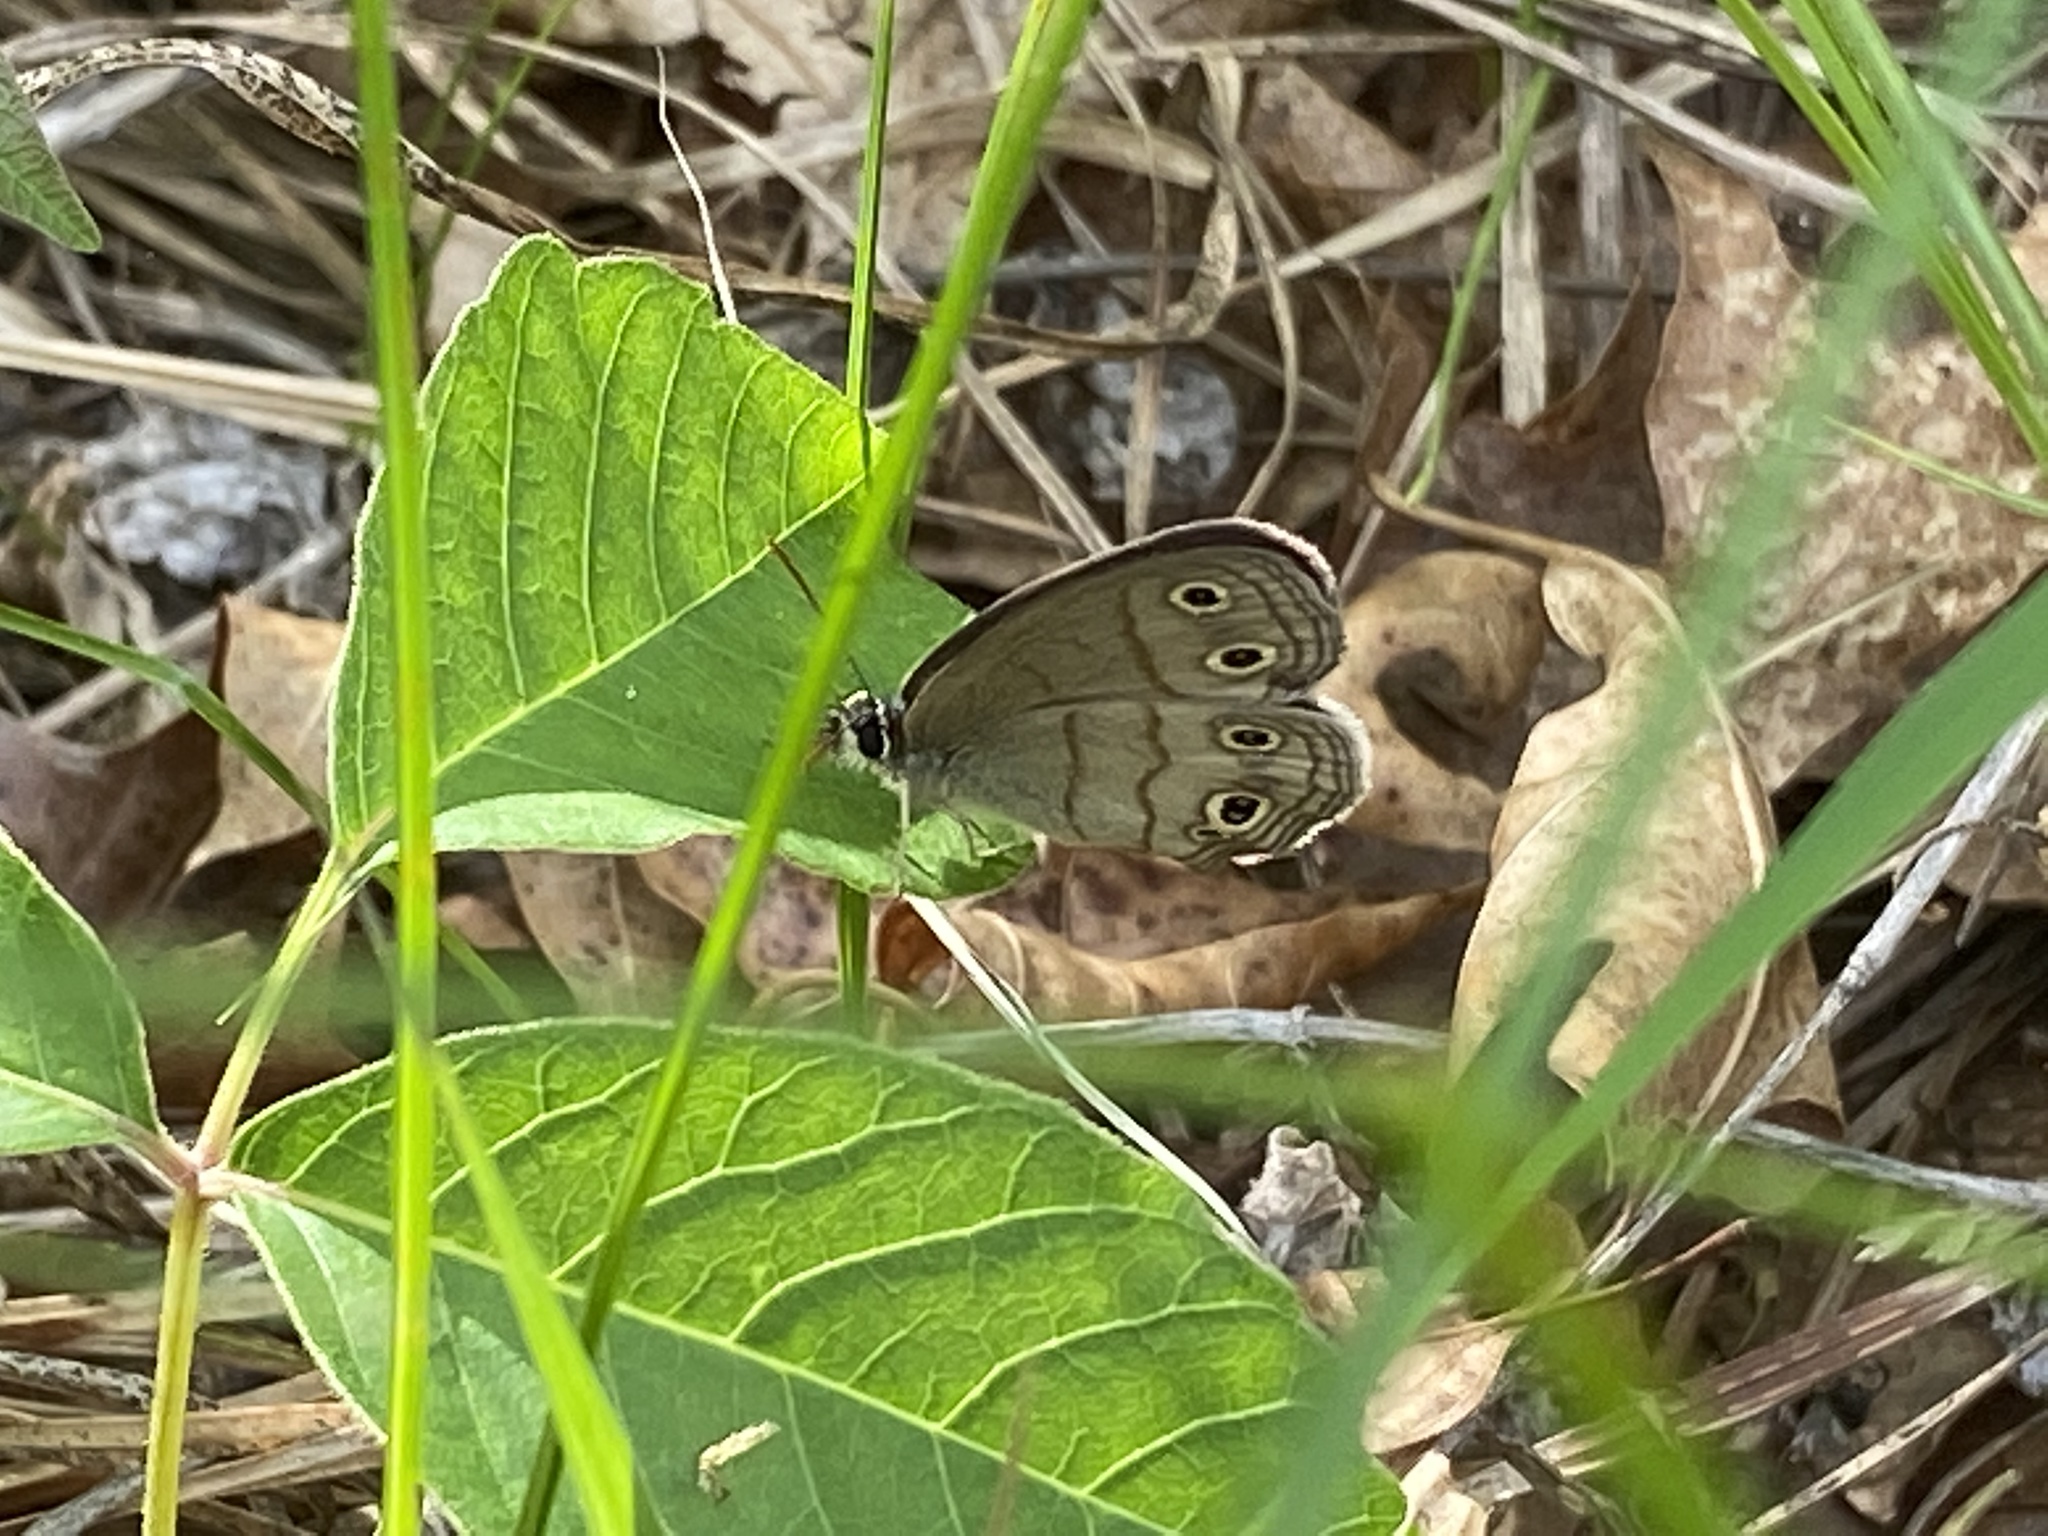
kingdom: Animalia
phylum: Arthropoda
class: Insecta
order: Lepidoptera
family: Nymphalidae
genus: Euptychia
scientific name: Euptychia cymela
